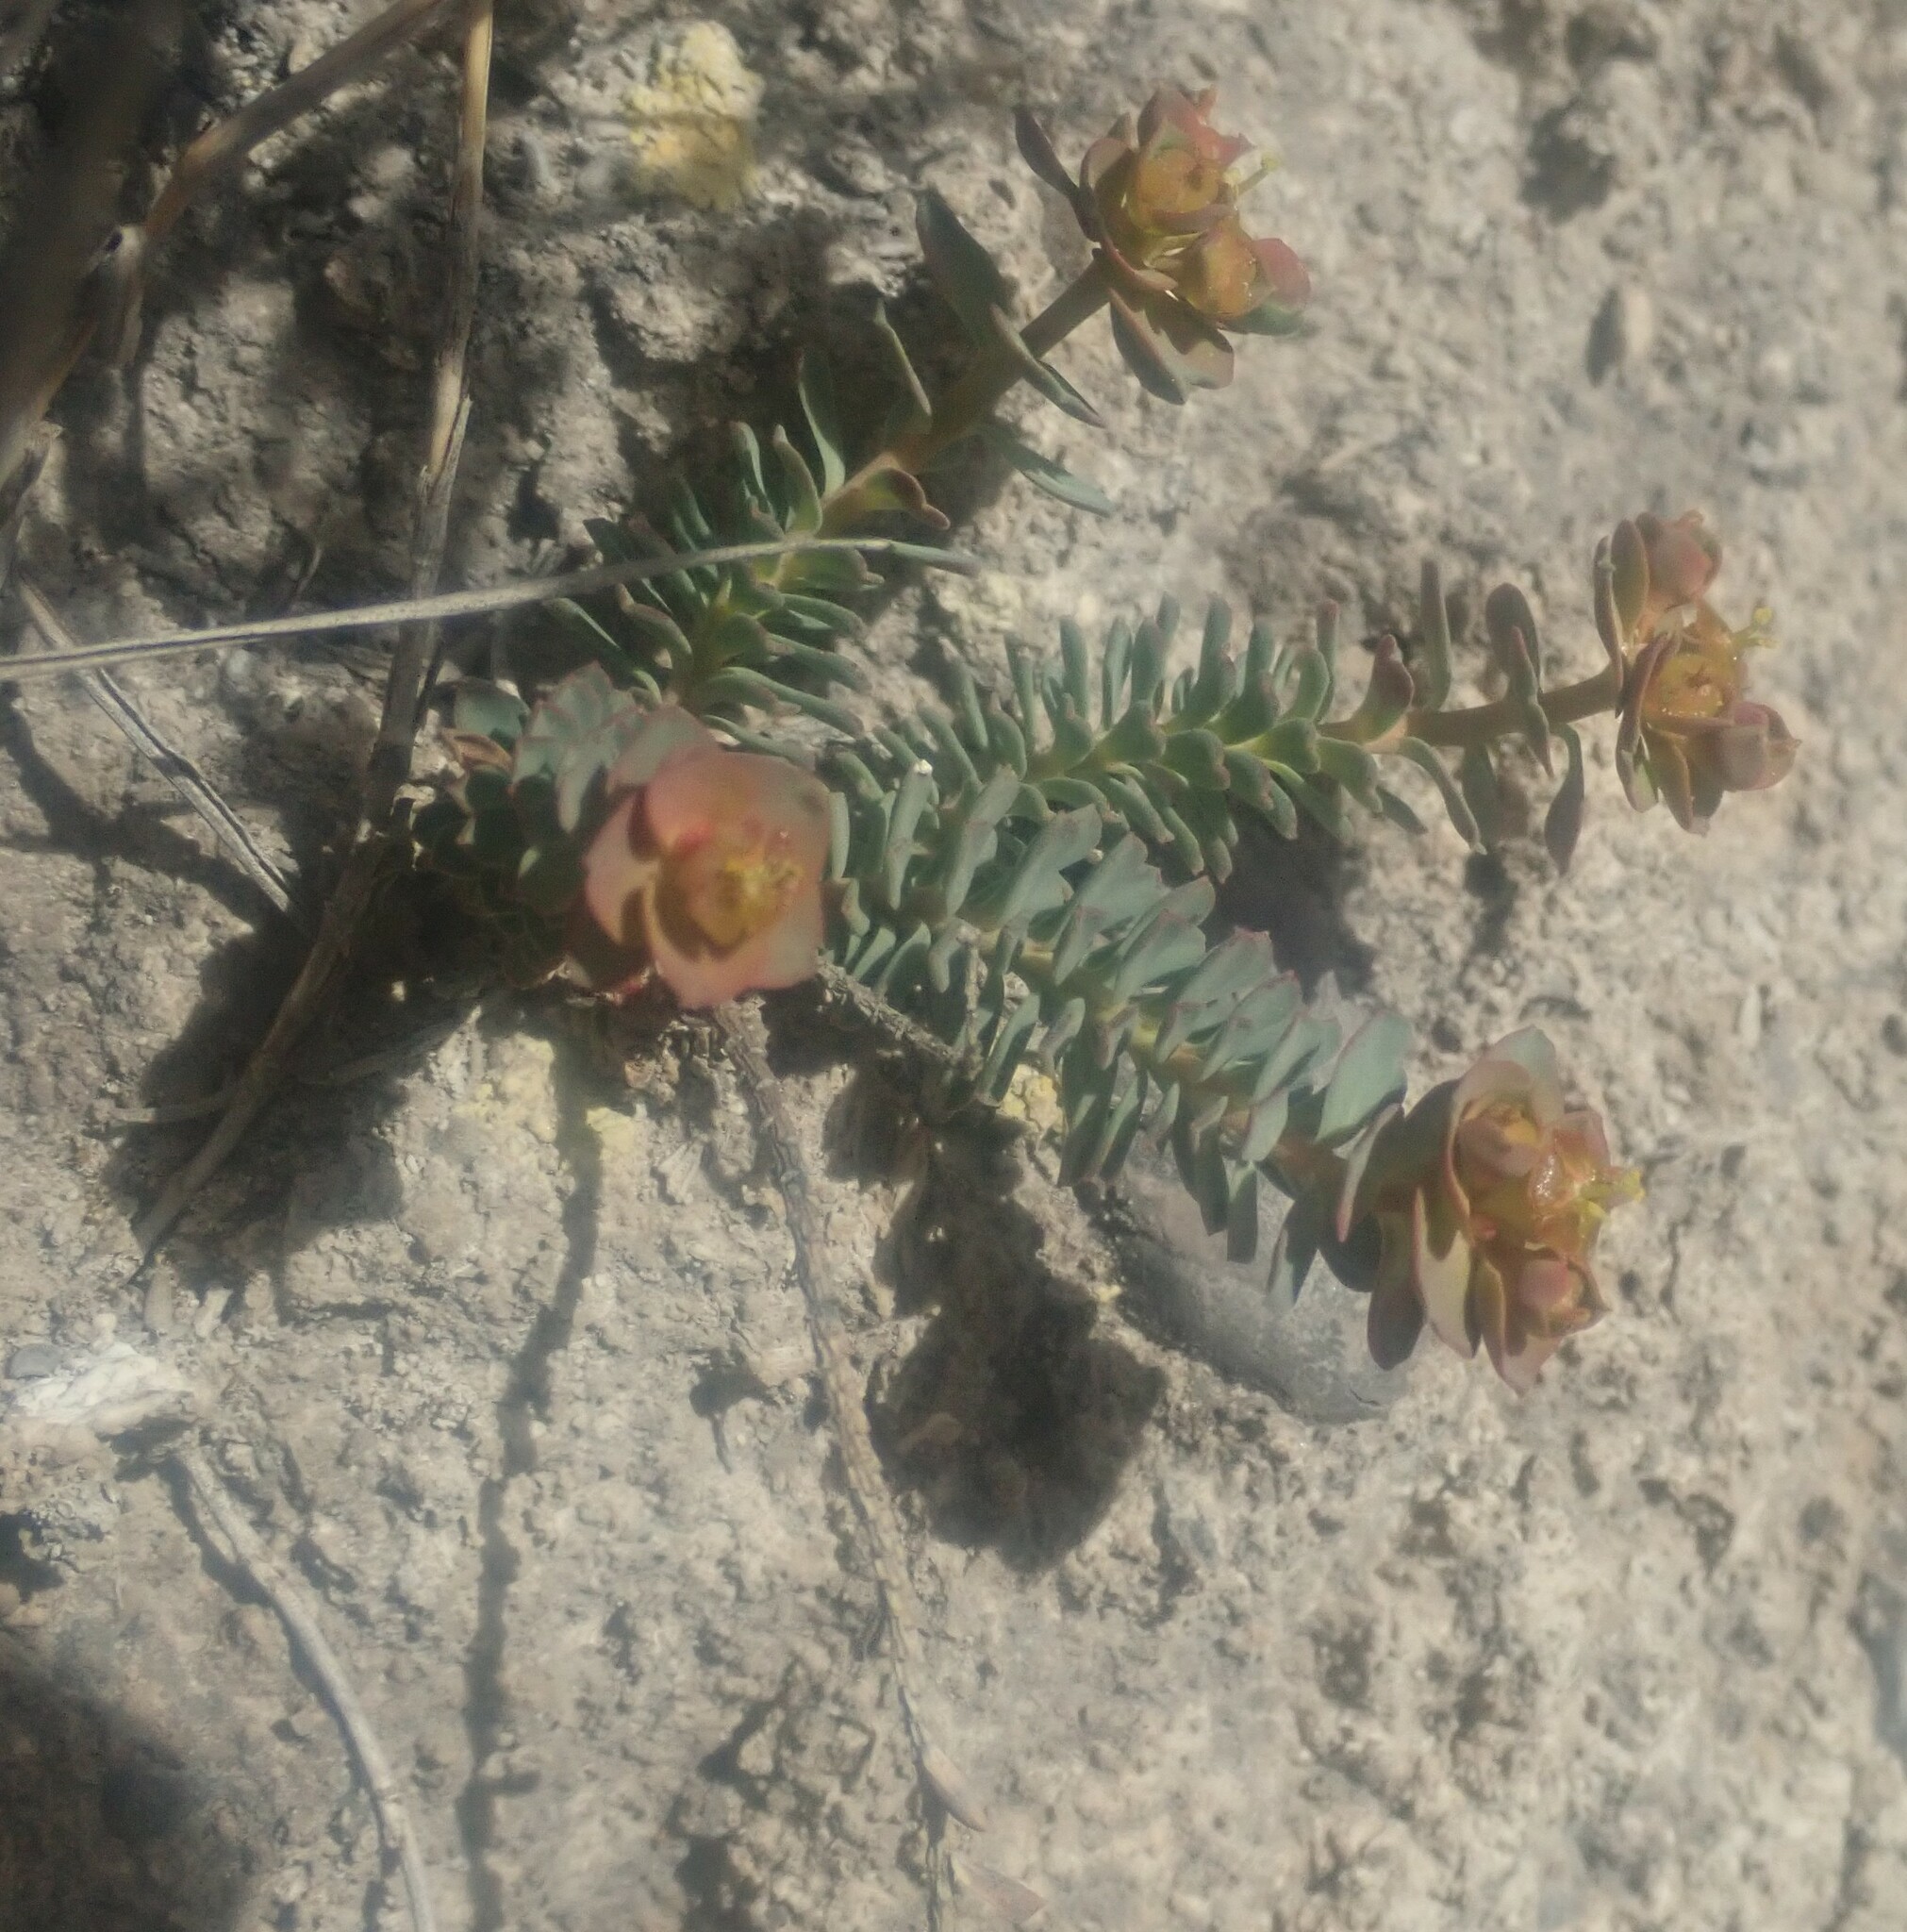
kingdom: Plantae
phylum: Tracheophyta
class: Magnoliopsida
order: Malpighiales
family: Euphorbiaceae
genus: Euphorbia
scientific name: Euphorbia myrsinites
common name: Myrtle spurge
